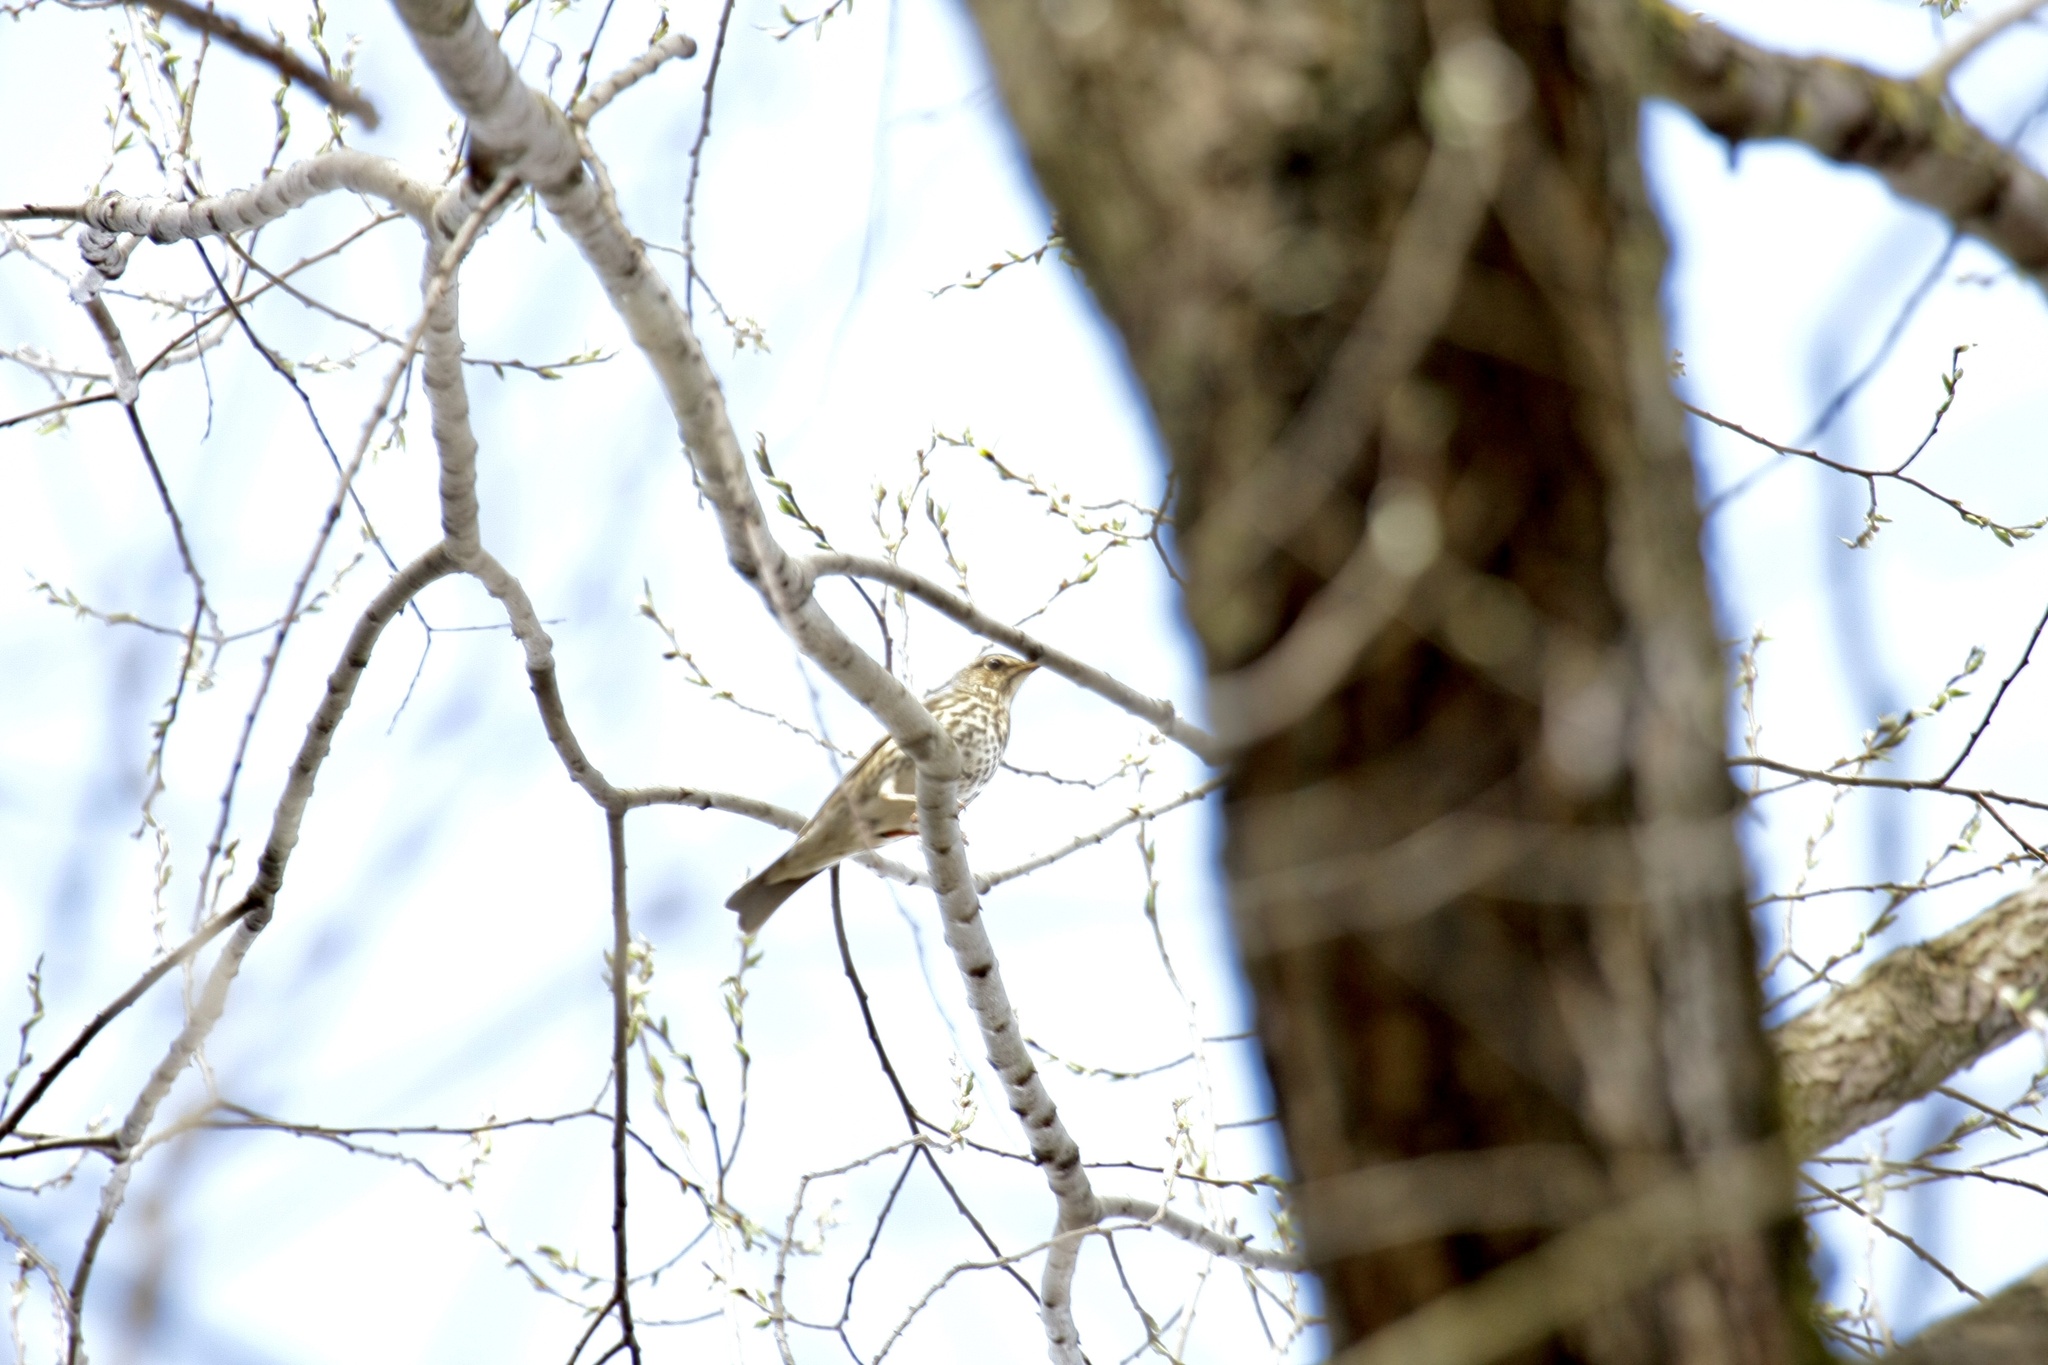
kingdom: Animalia
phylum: Chordata
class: Aves
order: Passeriformes
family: Turdidae
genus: Turdus
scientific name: Turdus philomelos
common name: Song thrush
